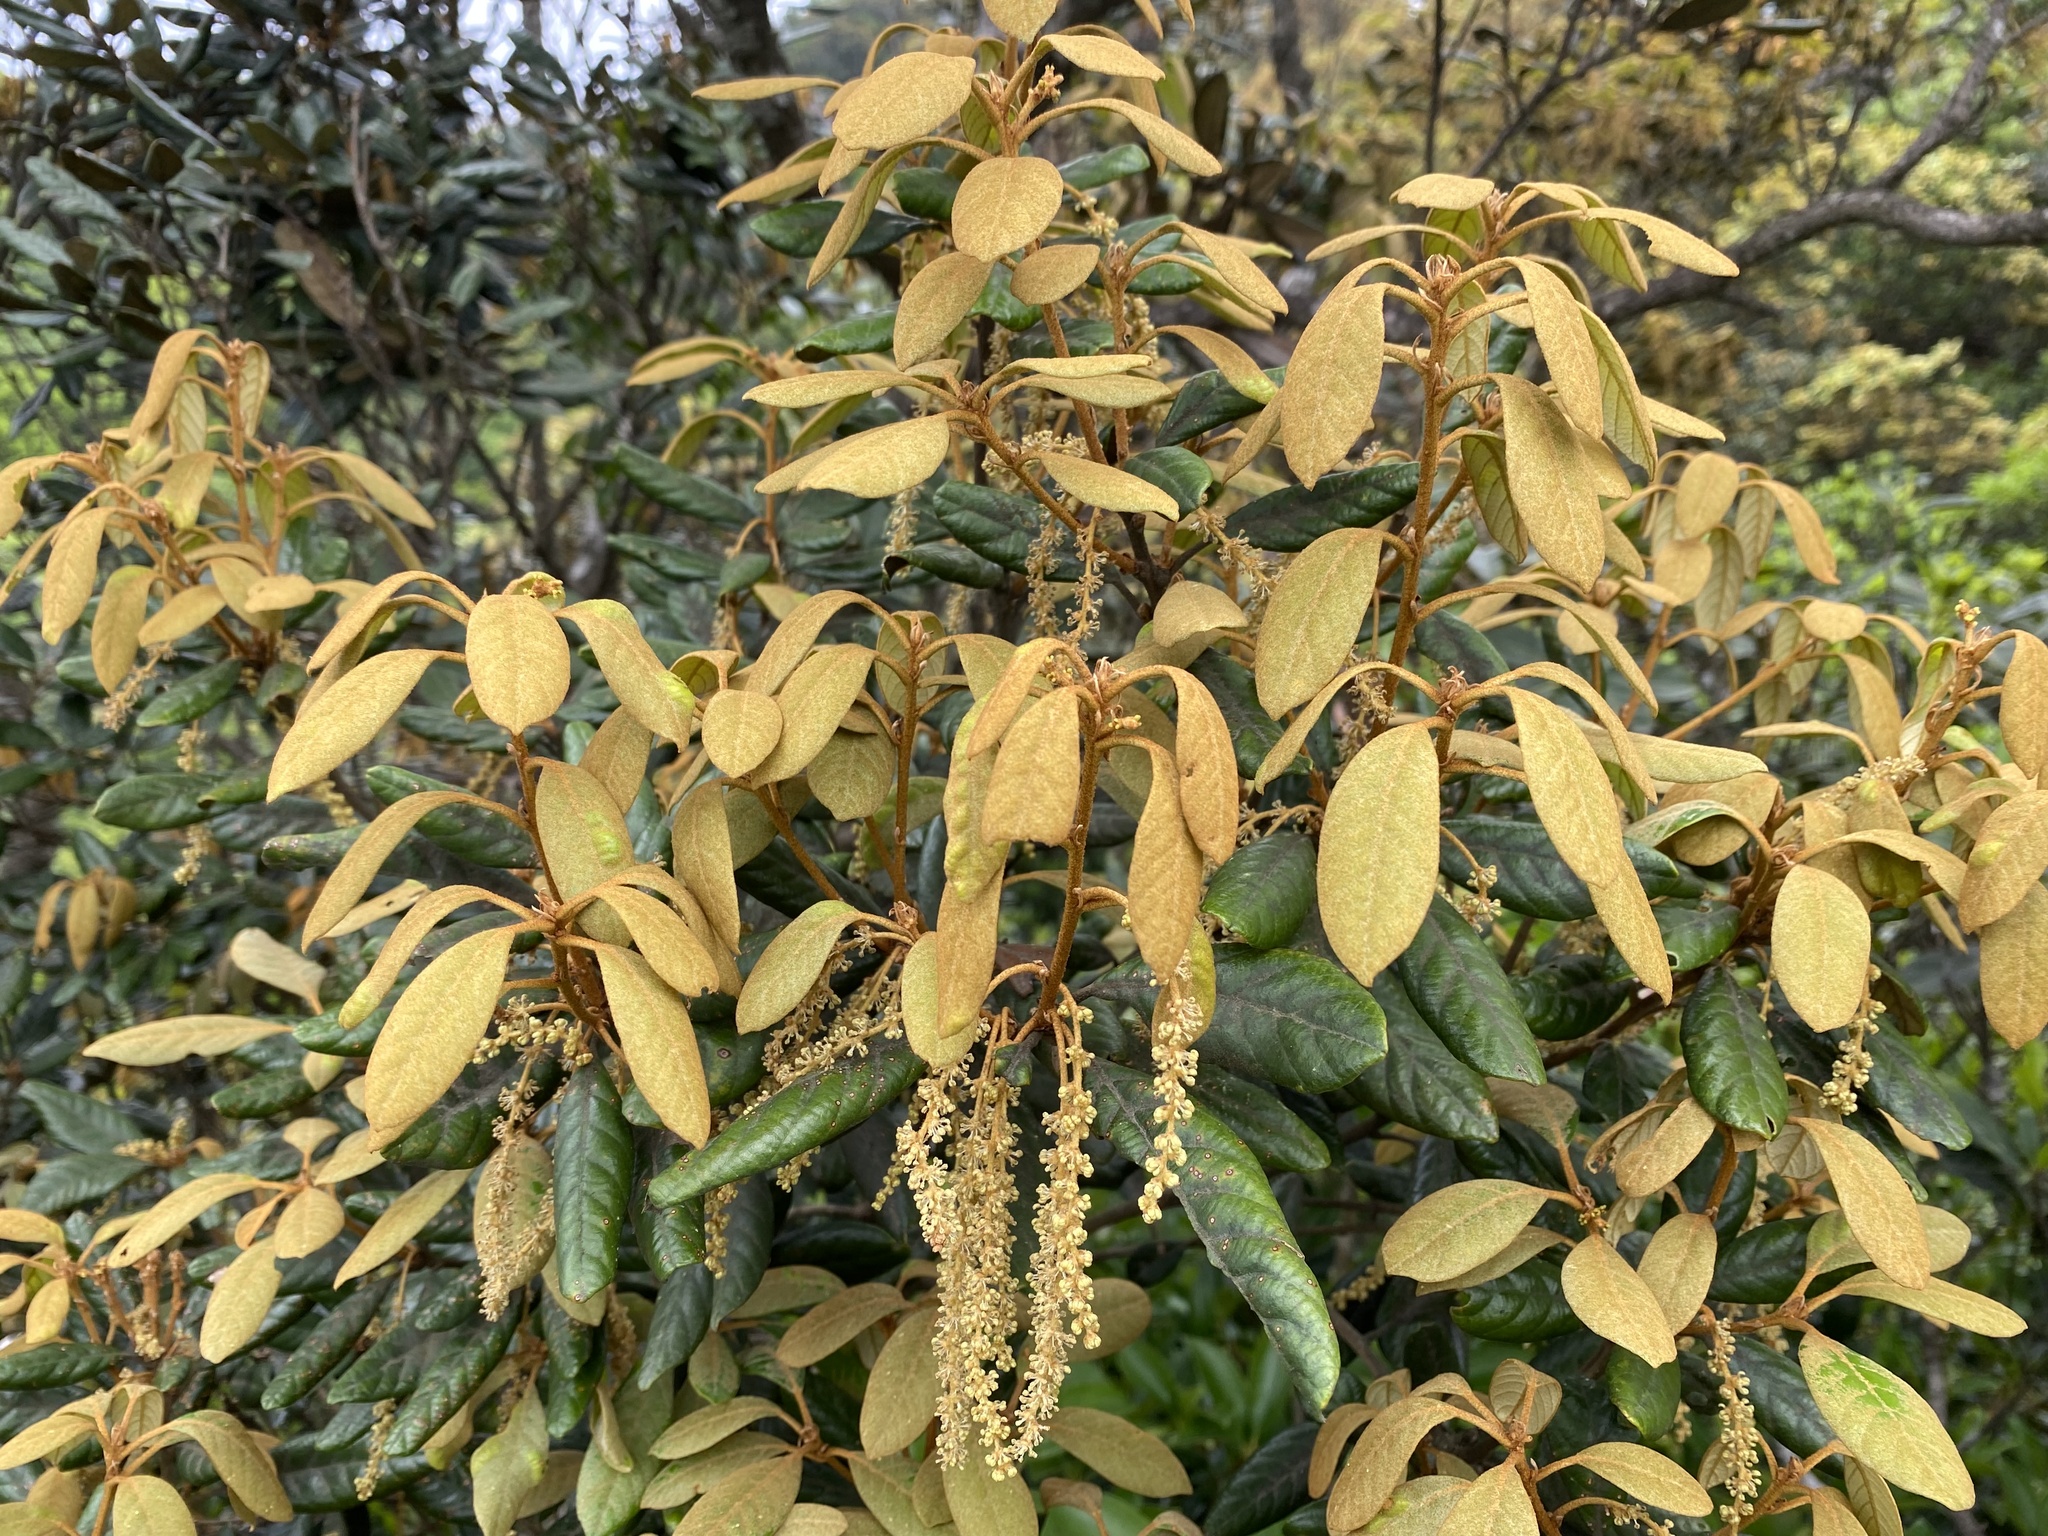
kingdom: Plantae
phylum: Tracheophyta
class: Magnoliopsida
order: Fagales
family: Fagaceae
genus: Quercus
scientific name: Quercus championii
